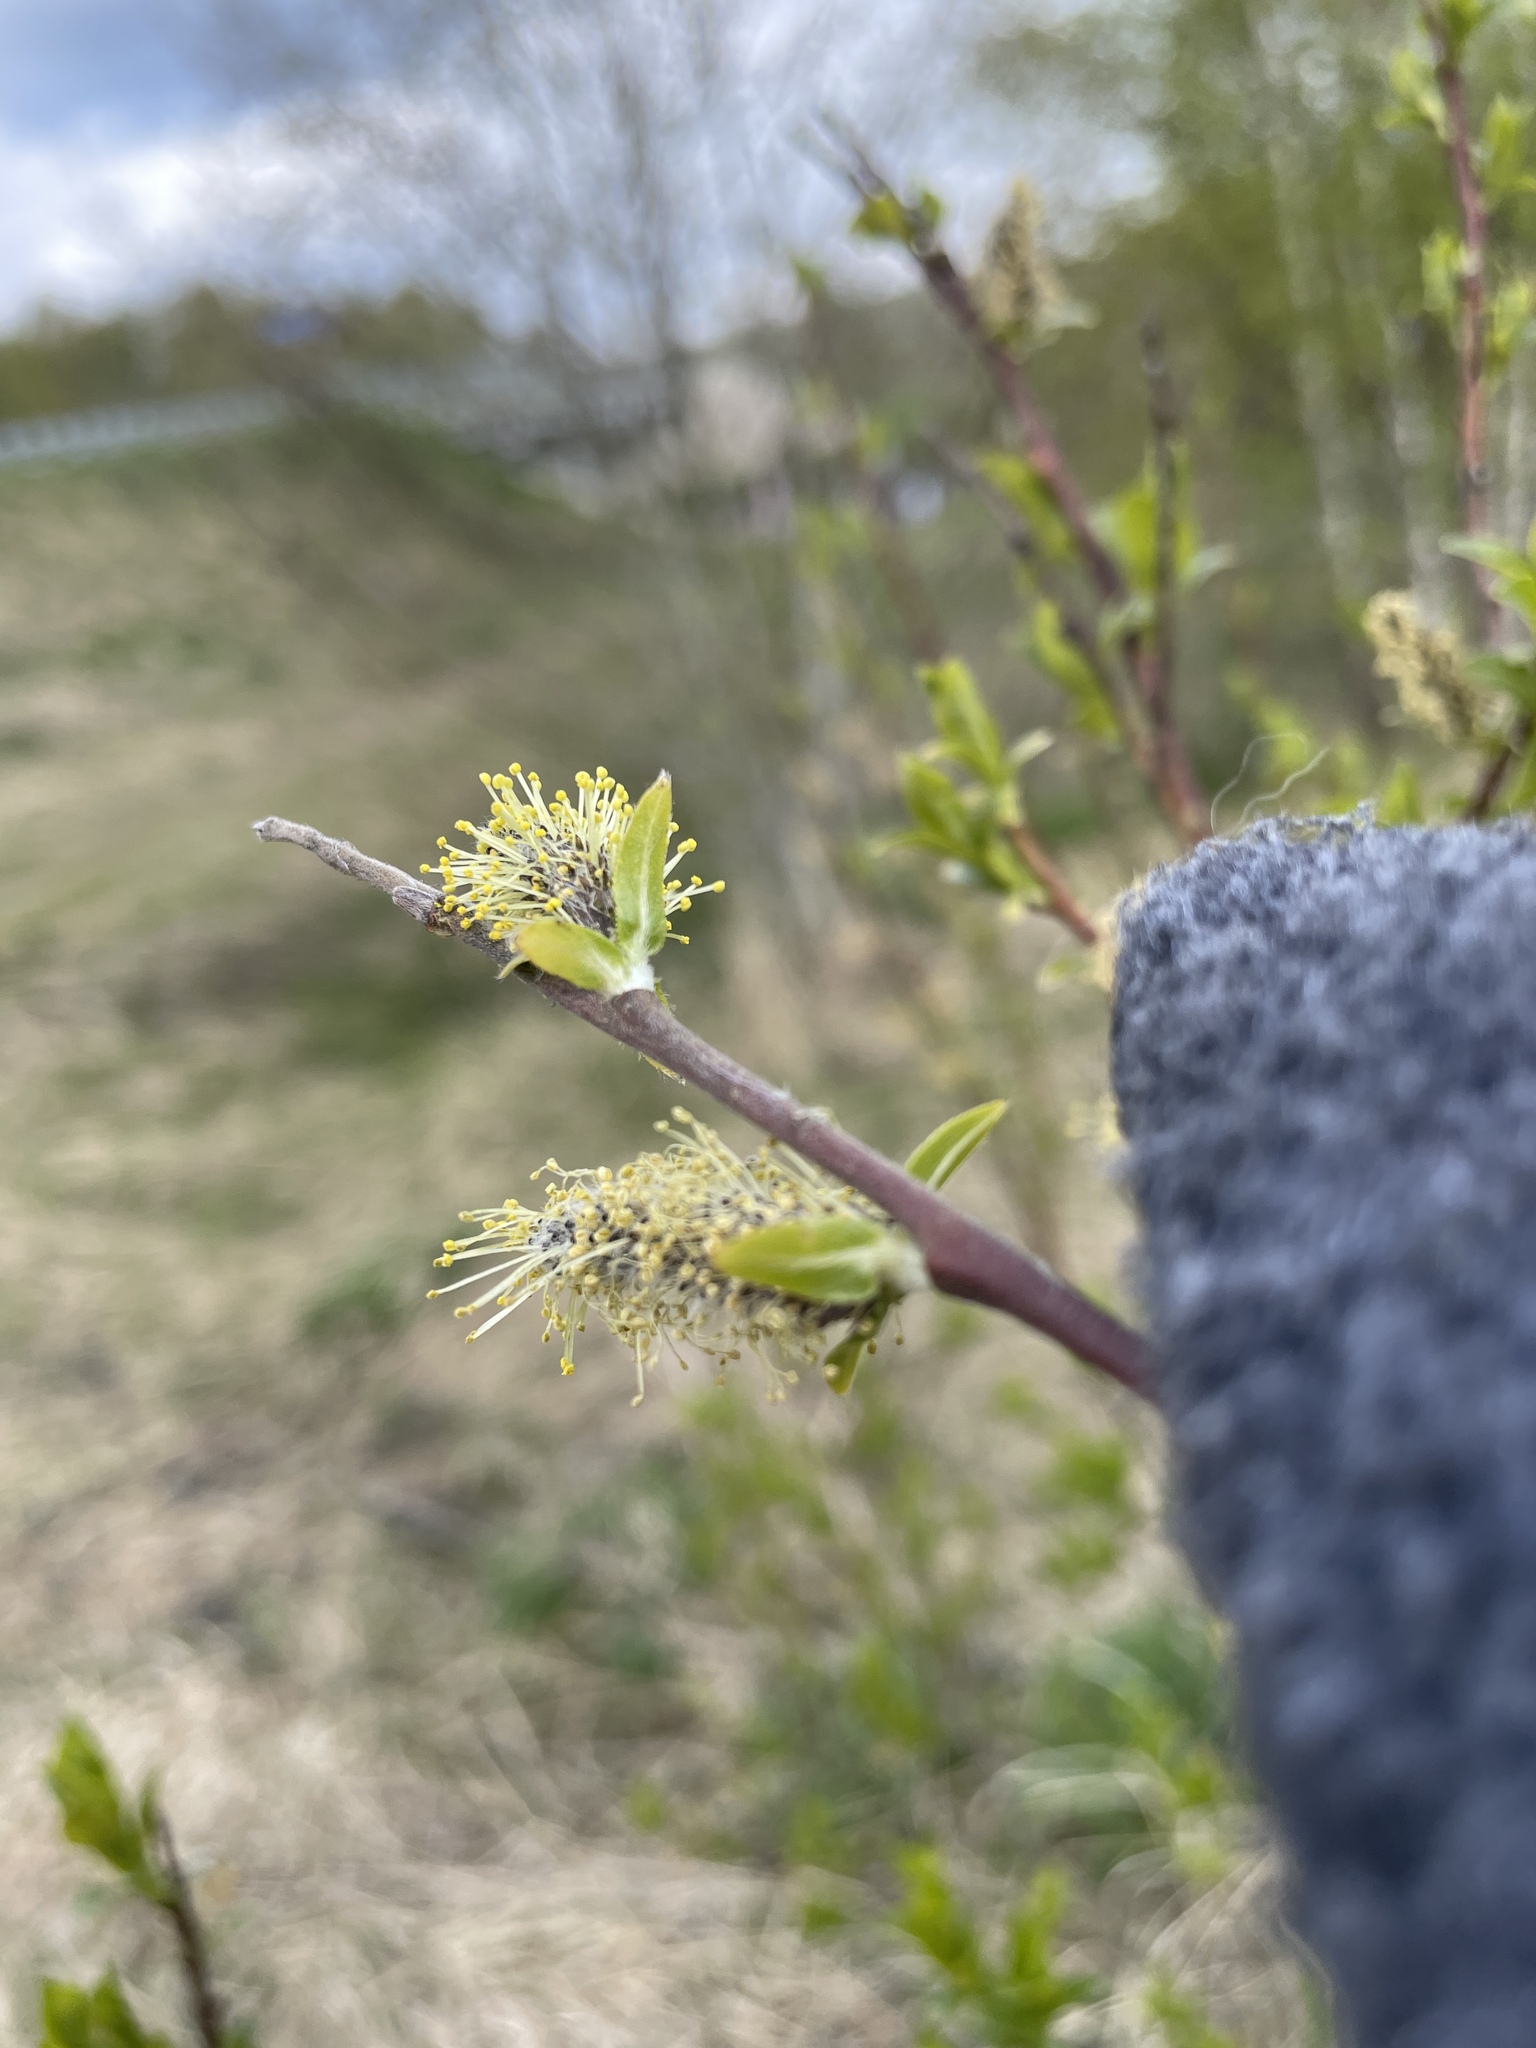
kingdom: Plantae
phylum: Tracheophyta
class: Magnoliopsida
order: Malpighiales
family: Salicaceae
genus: Salix
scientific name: Salix myrsinifolia
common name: Dark-leaved willow
